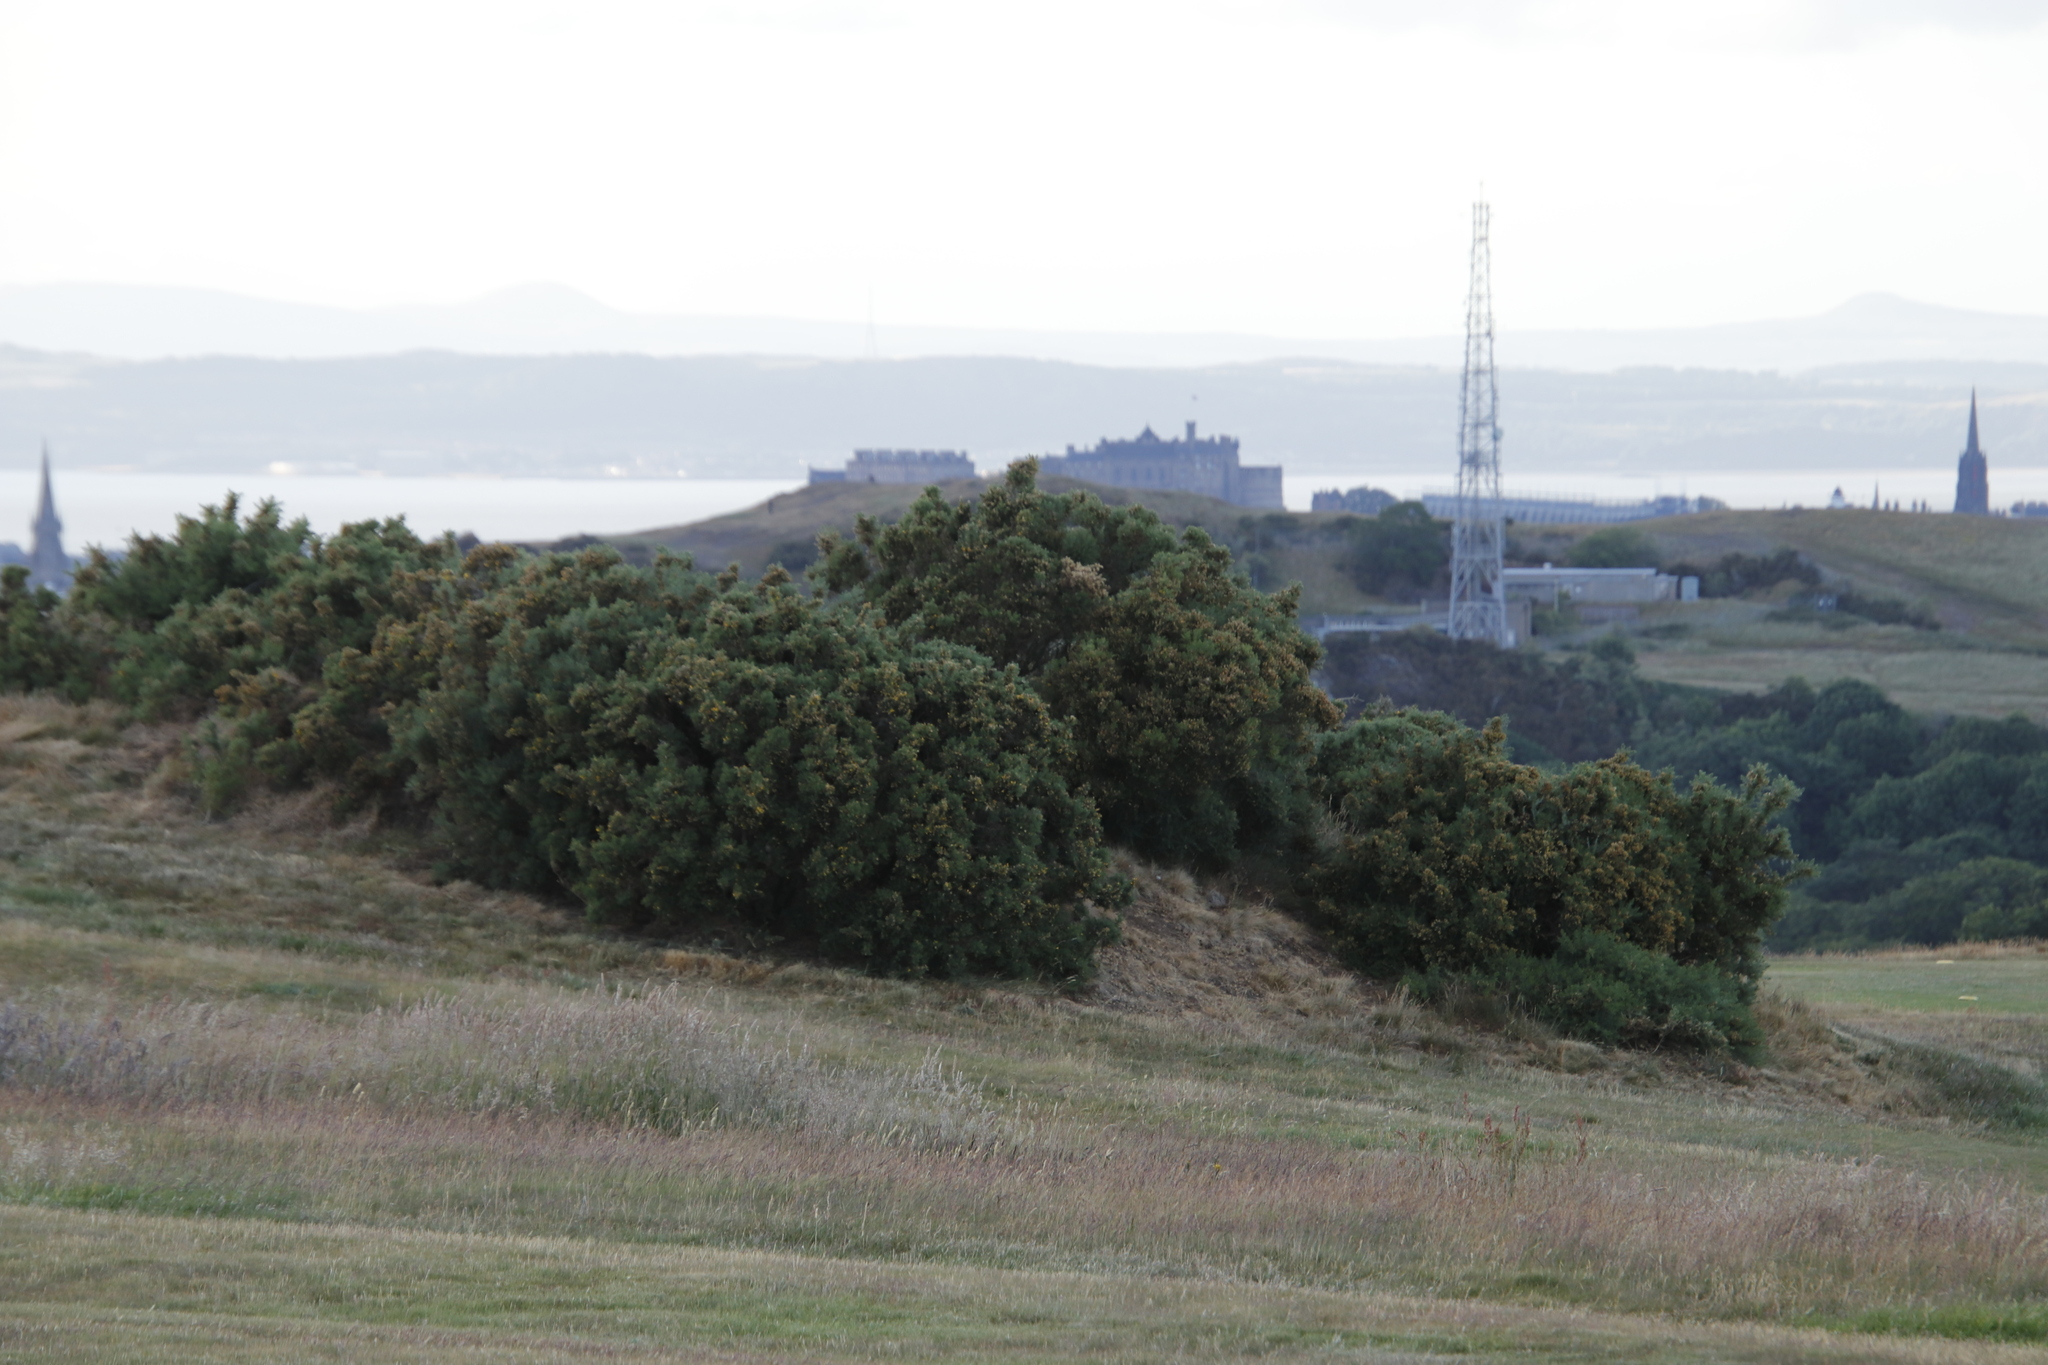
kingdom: Plantae
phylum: Tracheophyta
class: Magnoliopsida
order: Fabales
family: Fabaceae
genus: Ulex
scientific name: Ulex europaeus
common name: Common gorse
